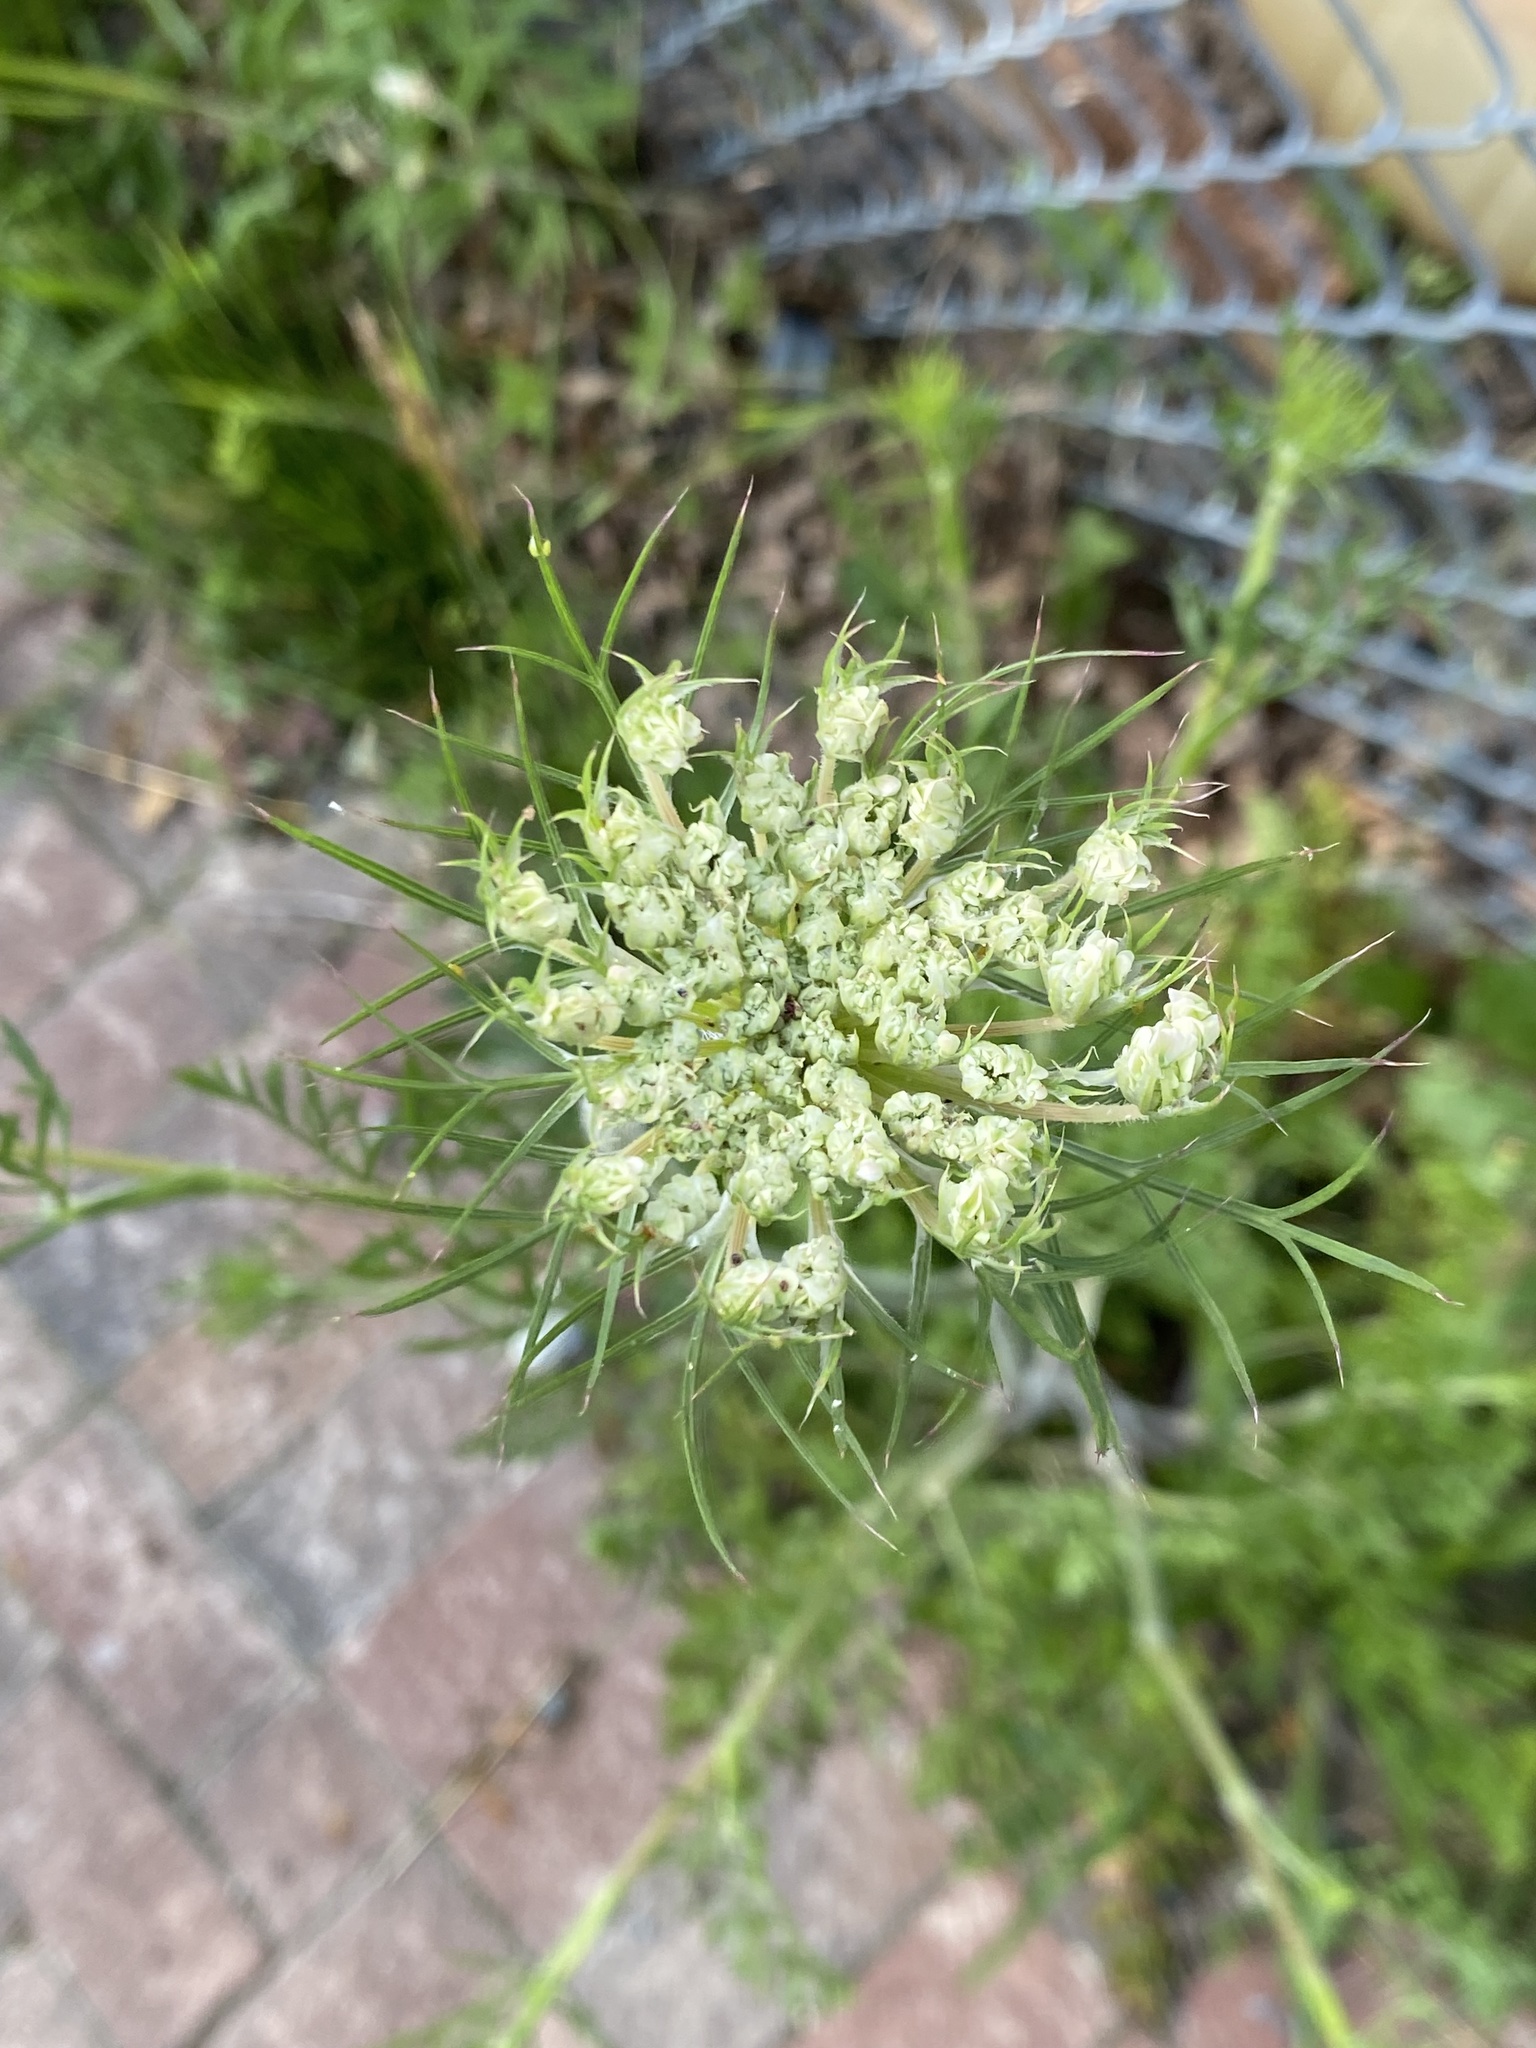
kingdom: Plantae
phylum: Tracheophyta
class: Magnoliopsida
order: Apiales
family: Apiaceae
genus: Daucus
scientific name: Daucus carota
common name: Wild carrot
